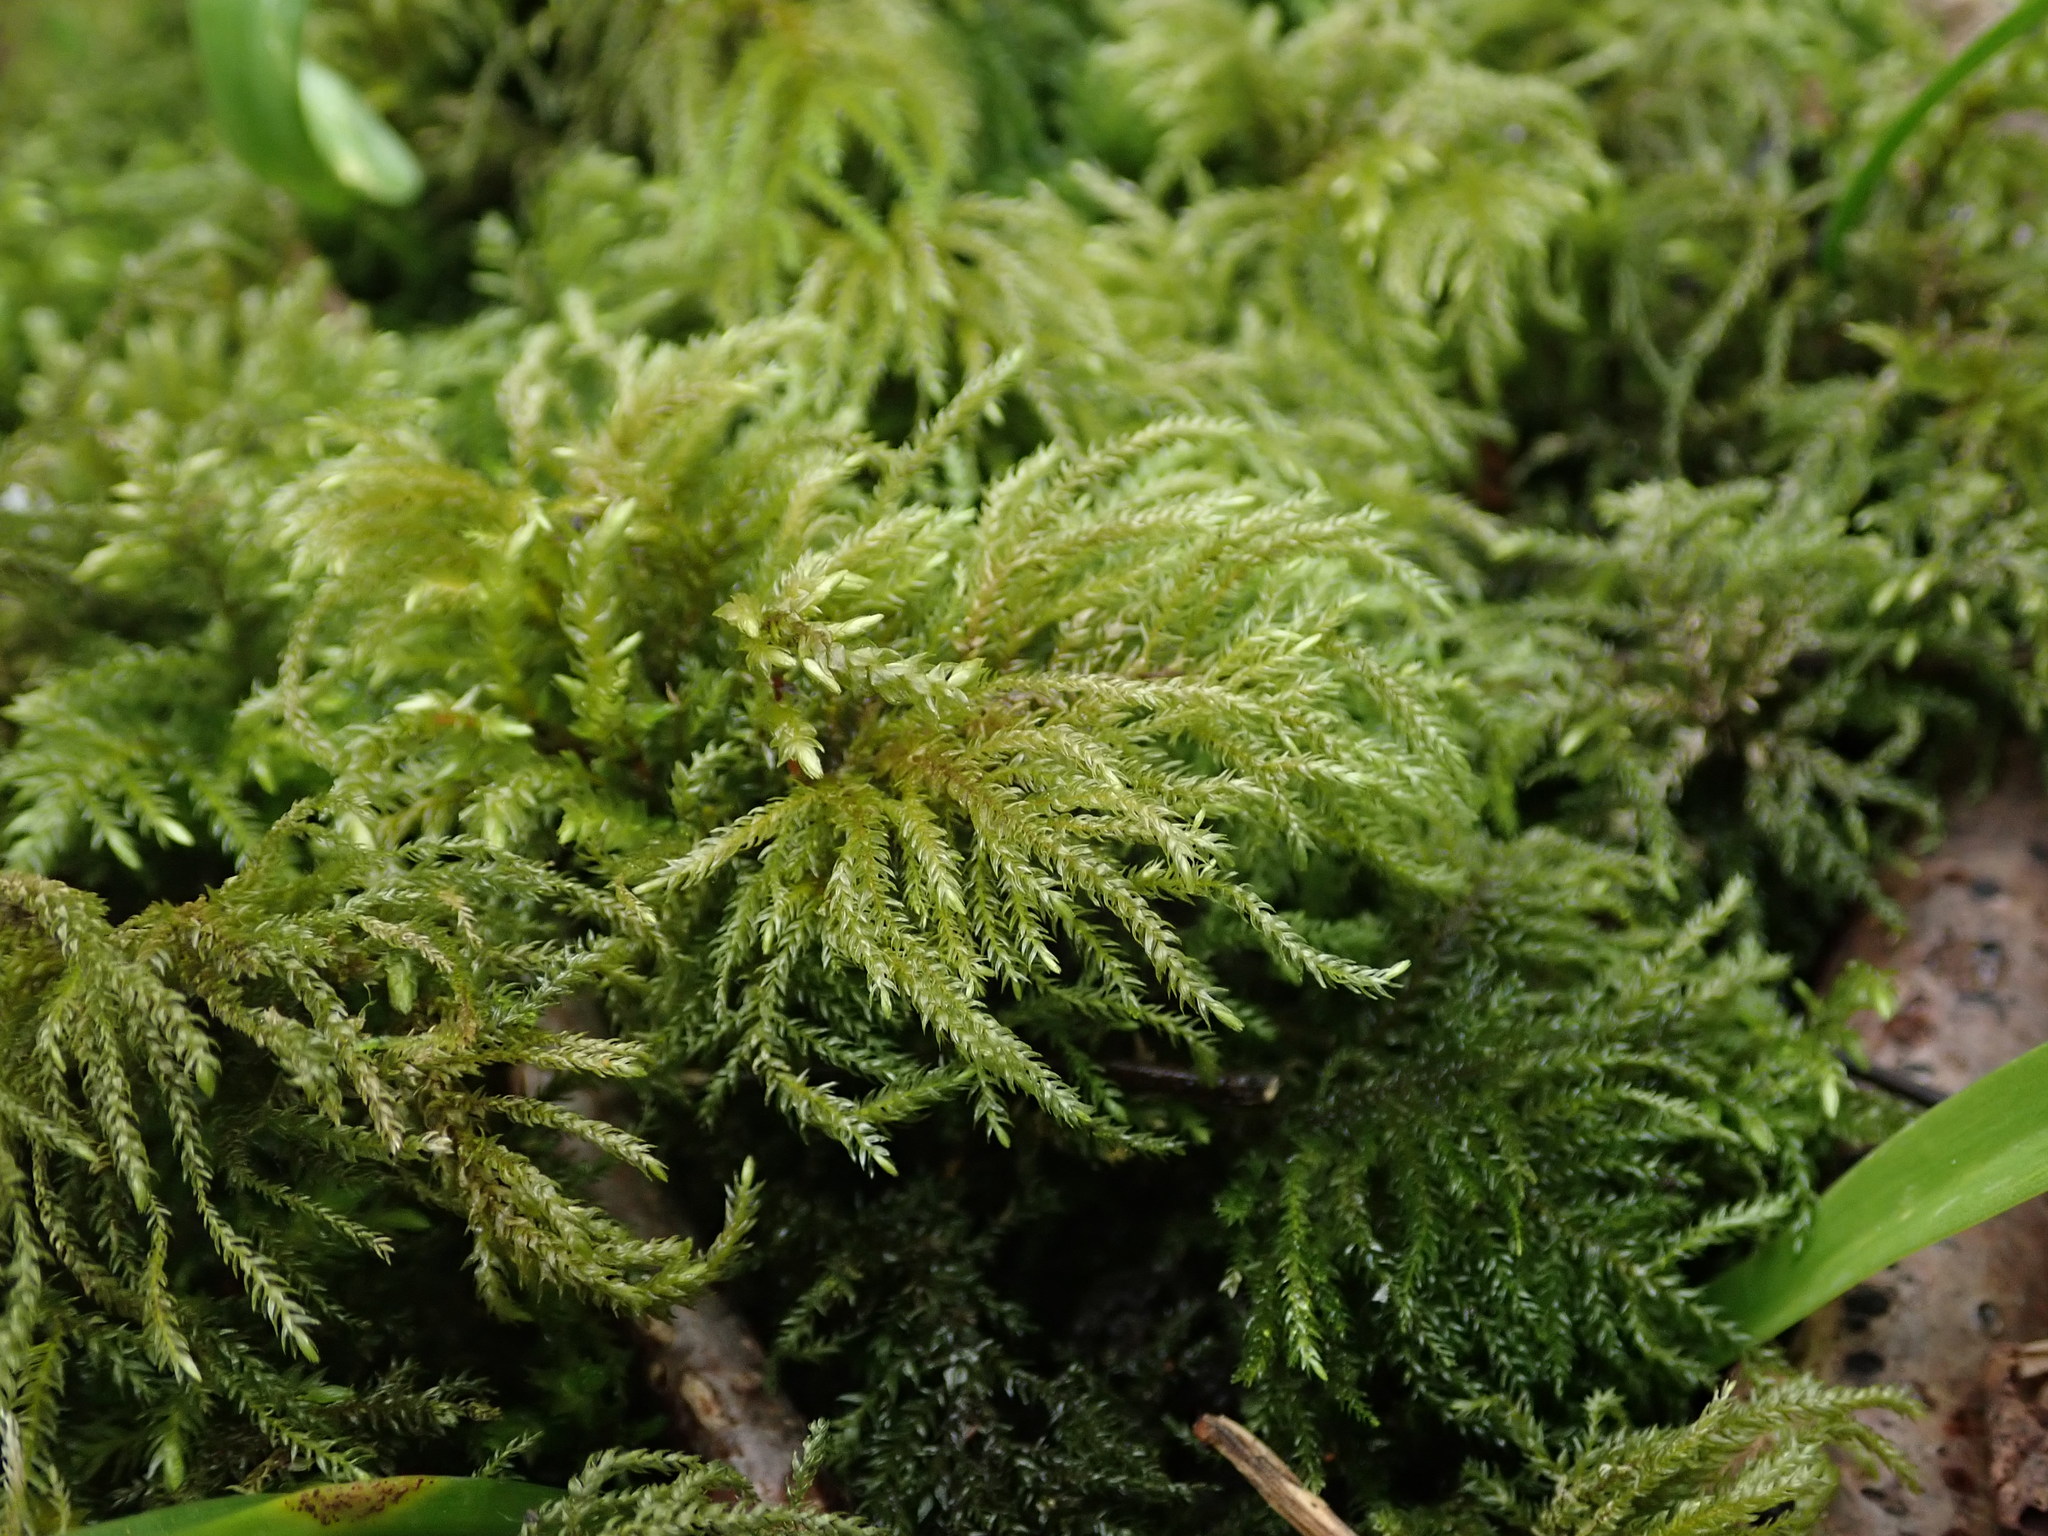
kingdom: Plantae
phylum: Bryophyta
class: Bryopsida
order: Hypnales
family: Neckeraceae
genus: Thamnobryum
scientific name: Thamnobryum alopecurum
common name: Fox-tail feather-moss
